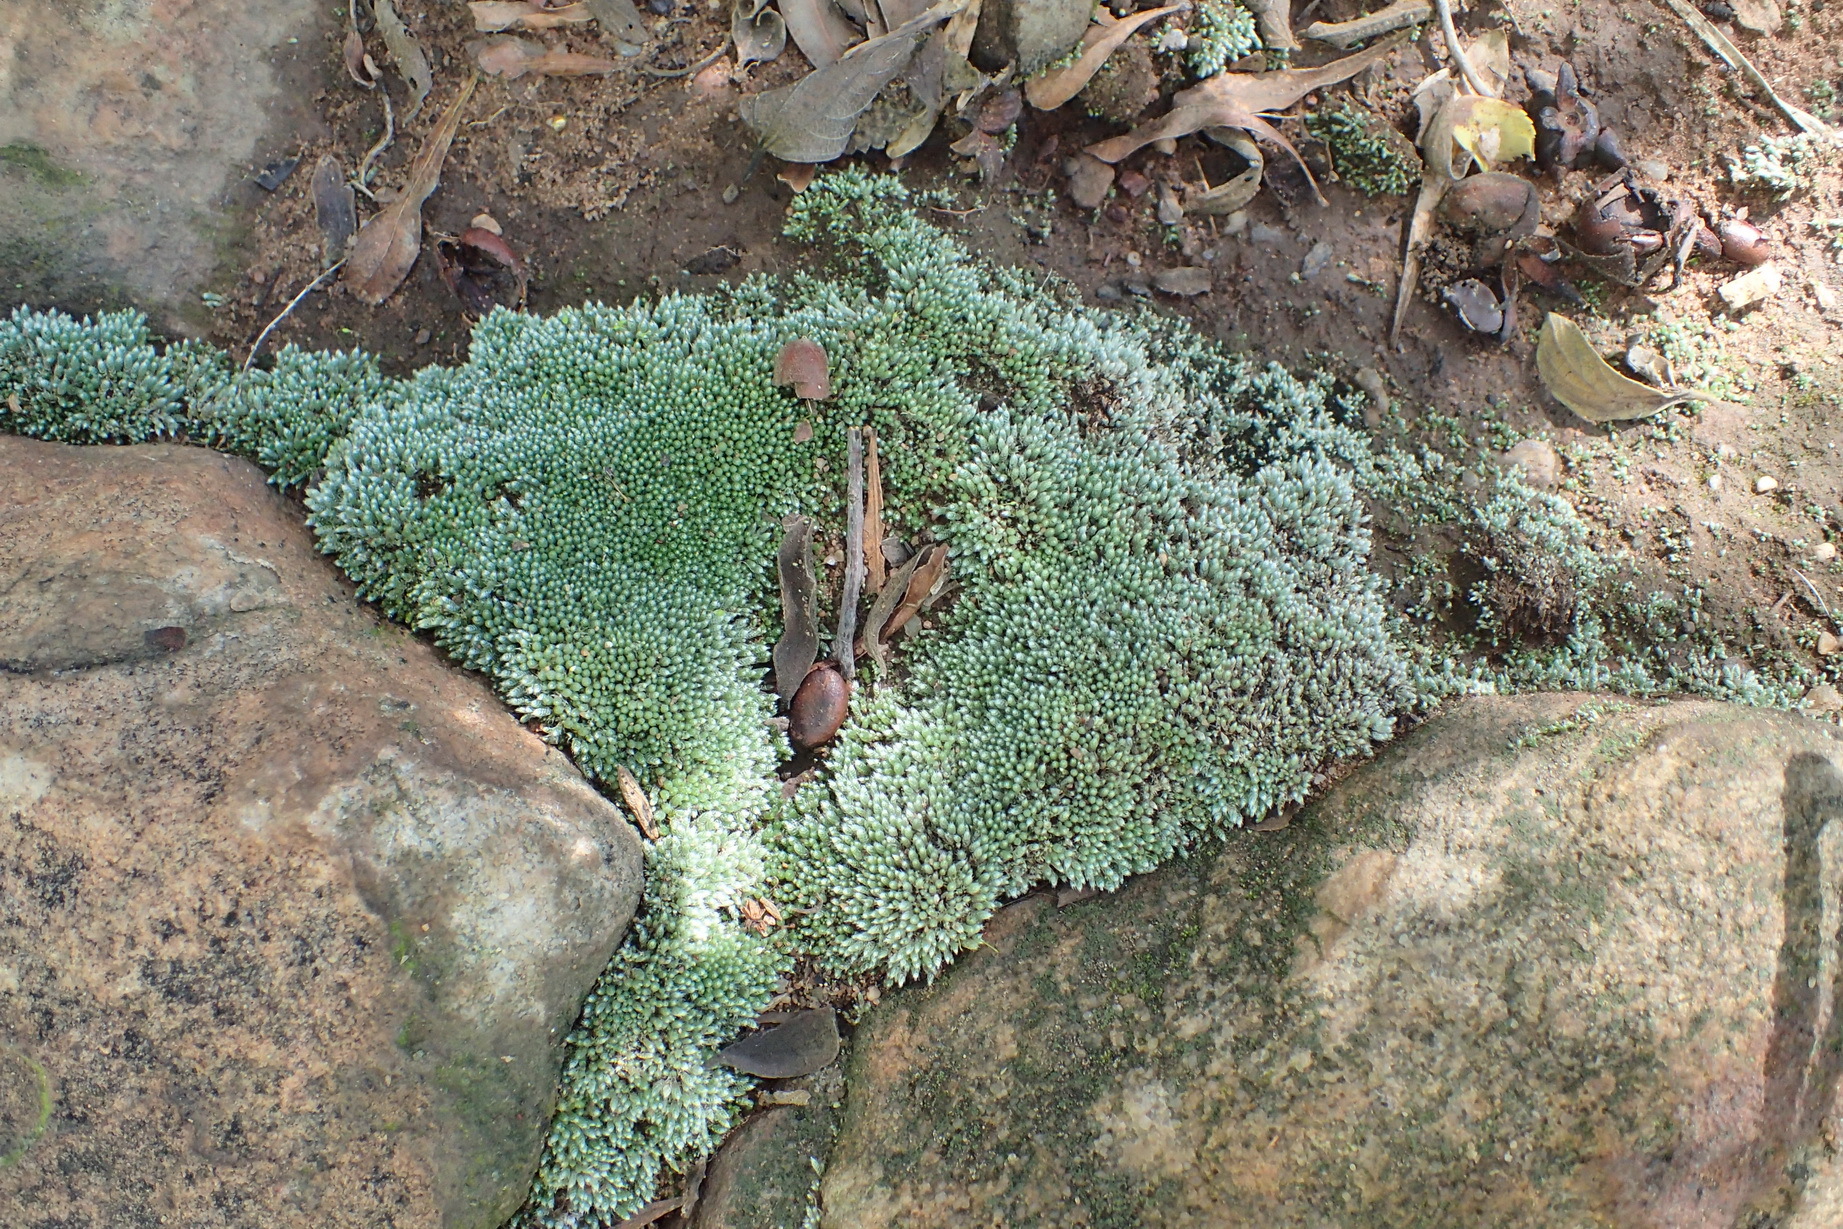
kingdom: Plantae
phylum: Bryophyta
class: Bryopsida
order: Bryales
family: Bryaceae
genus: Bryum
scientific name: Bryum argenteum
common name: Silver-moss
